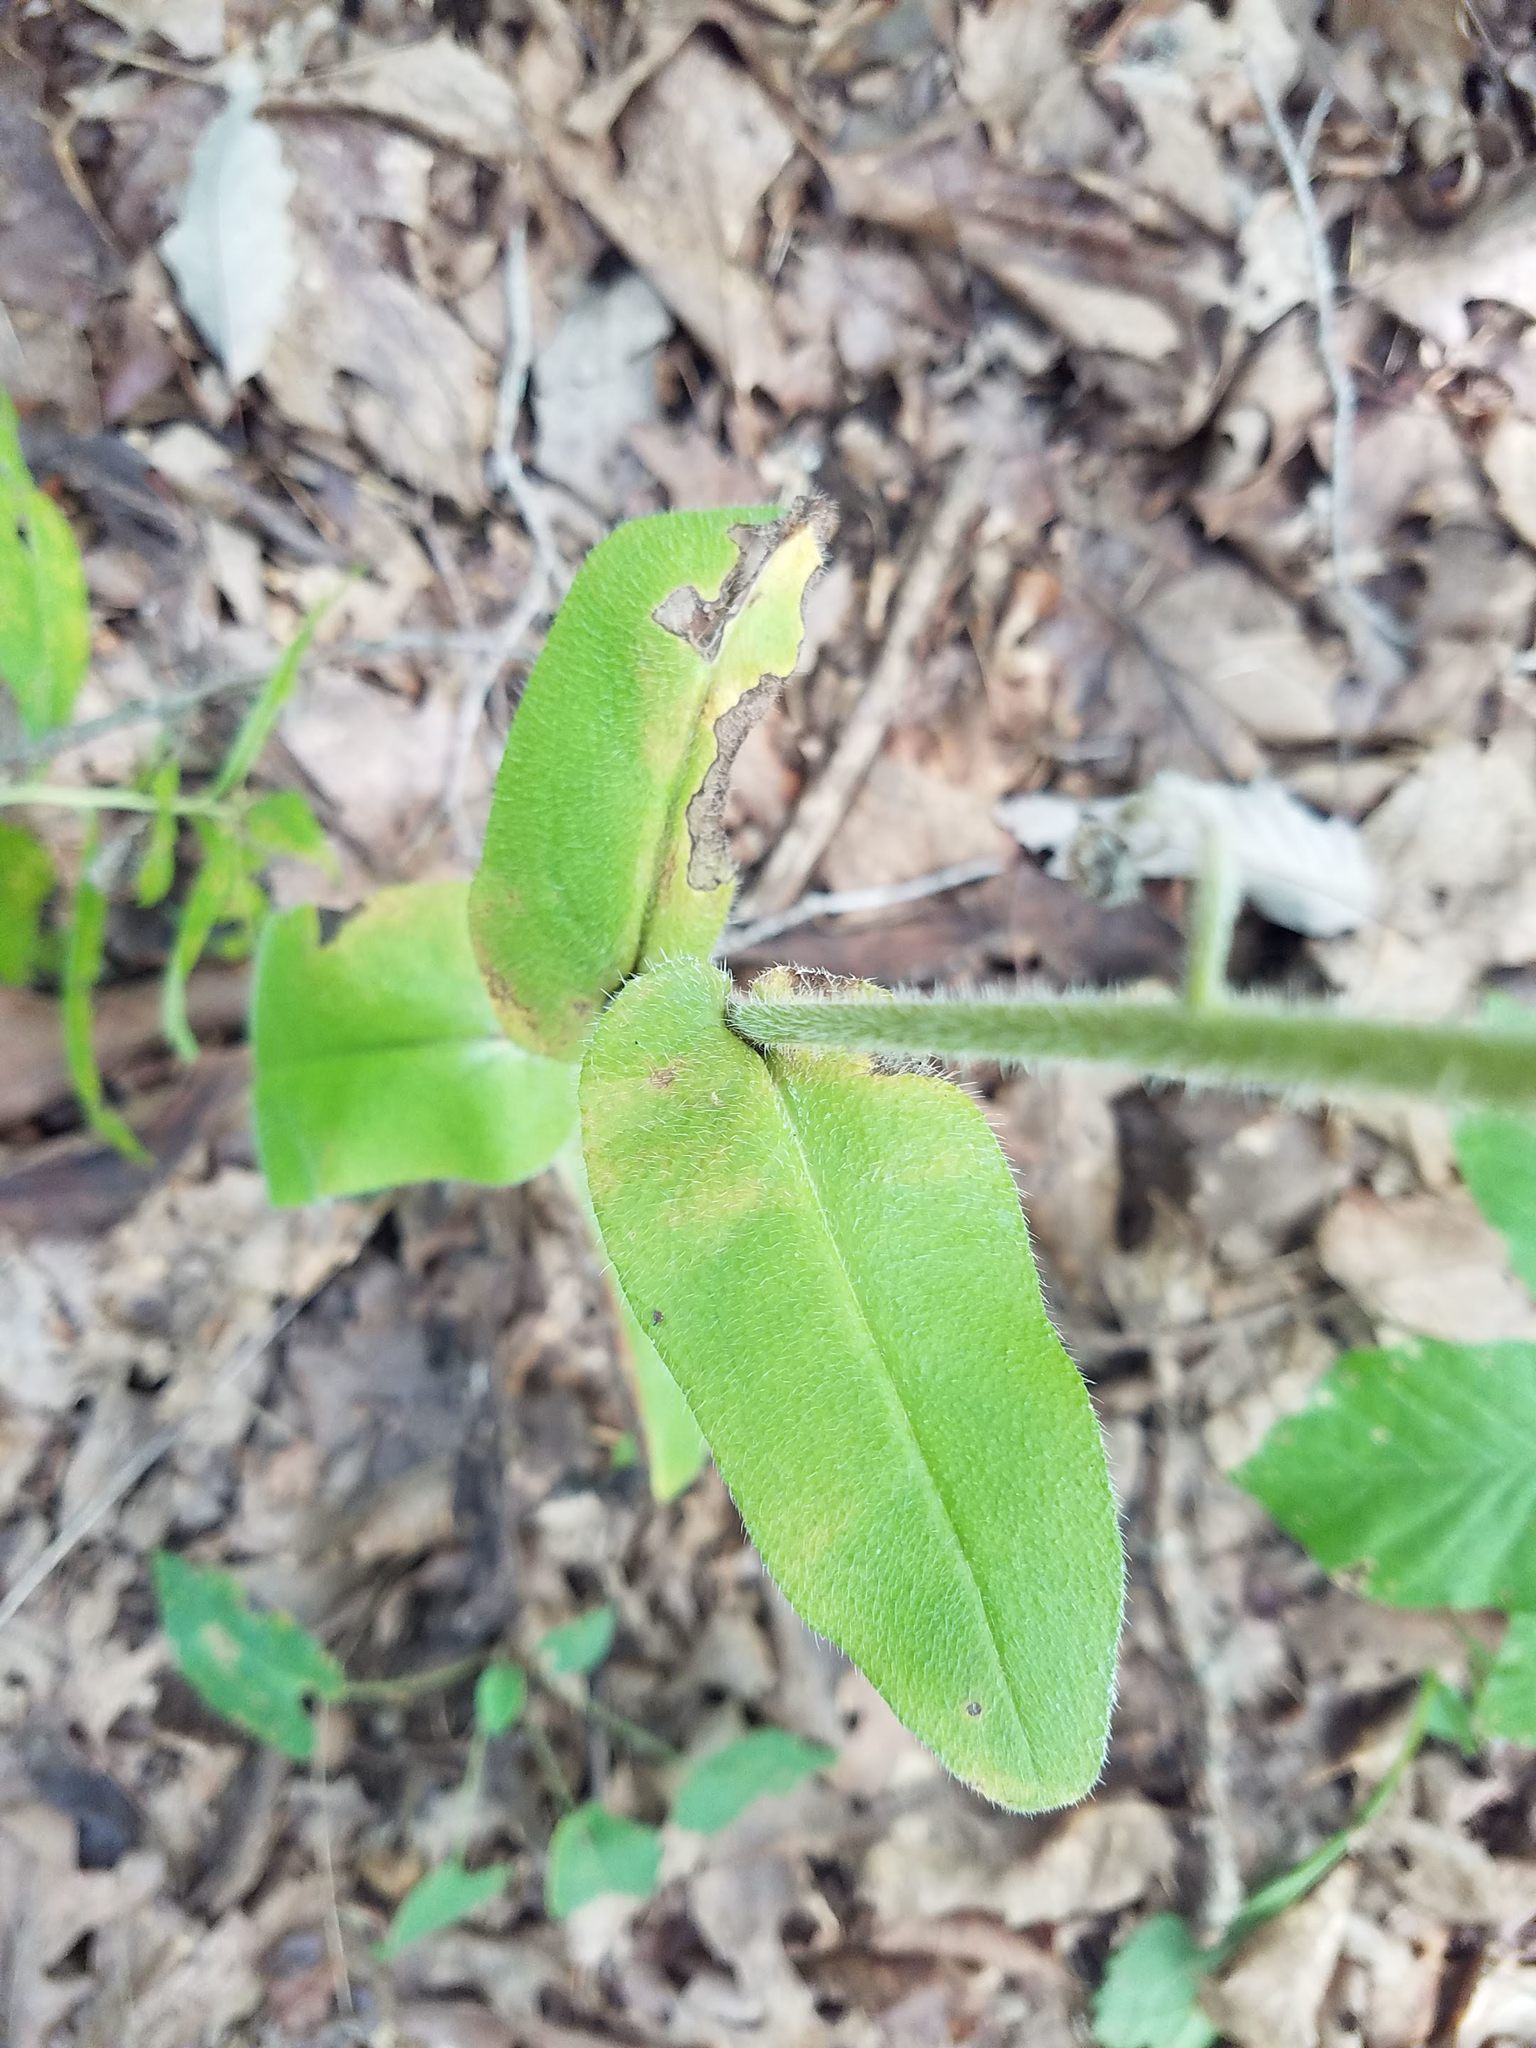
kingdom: Plantae
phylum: Tracheophyta
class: Magnoliopsida
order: Boraginales
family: Boraginaceae
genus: Andersonglossum
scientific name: Andersonglossum virginianum
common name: Wild comfrey
